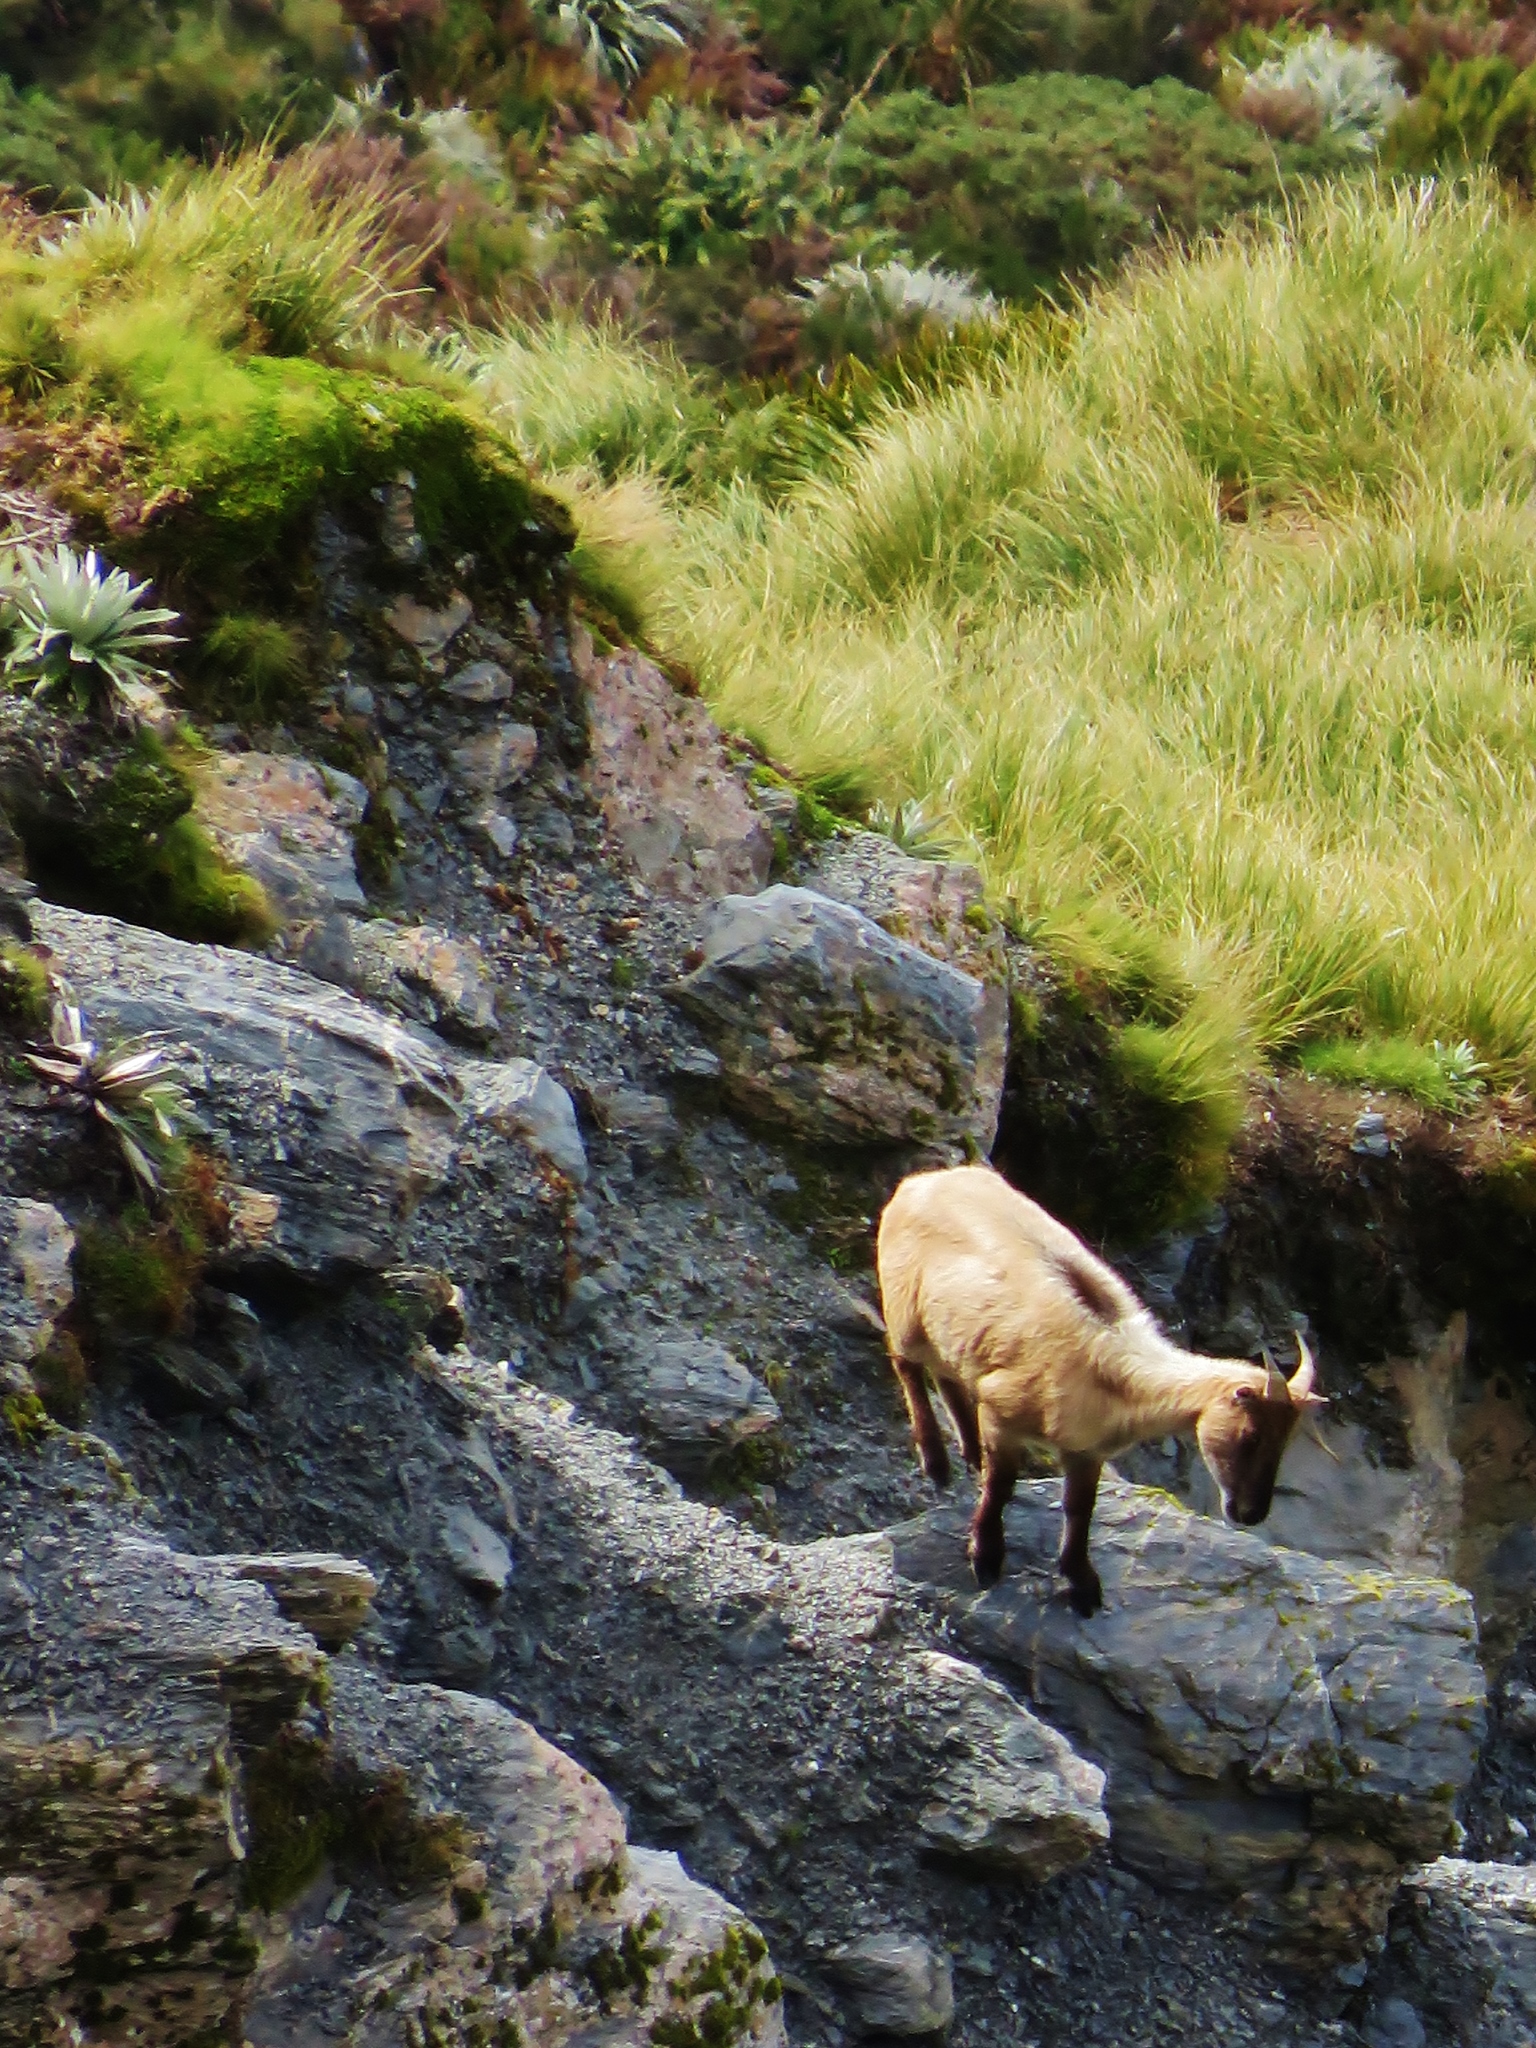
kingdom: Animalia
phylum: Chordata
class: Mammalia
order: Artiodactyla
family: Bovidae
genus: Hemitragus
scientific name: Hemitragus jemlahicus
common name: Himalayan tahr
